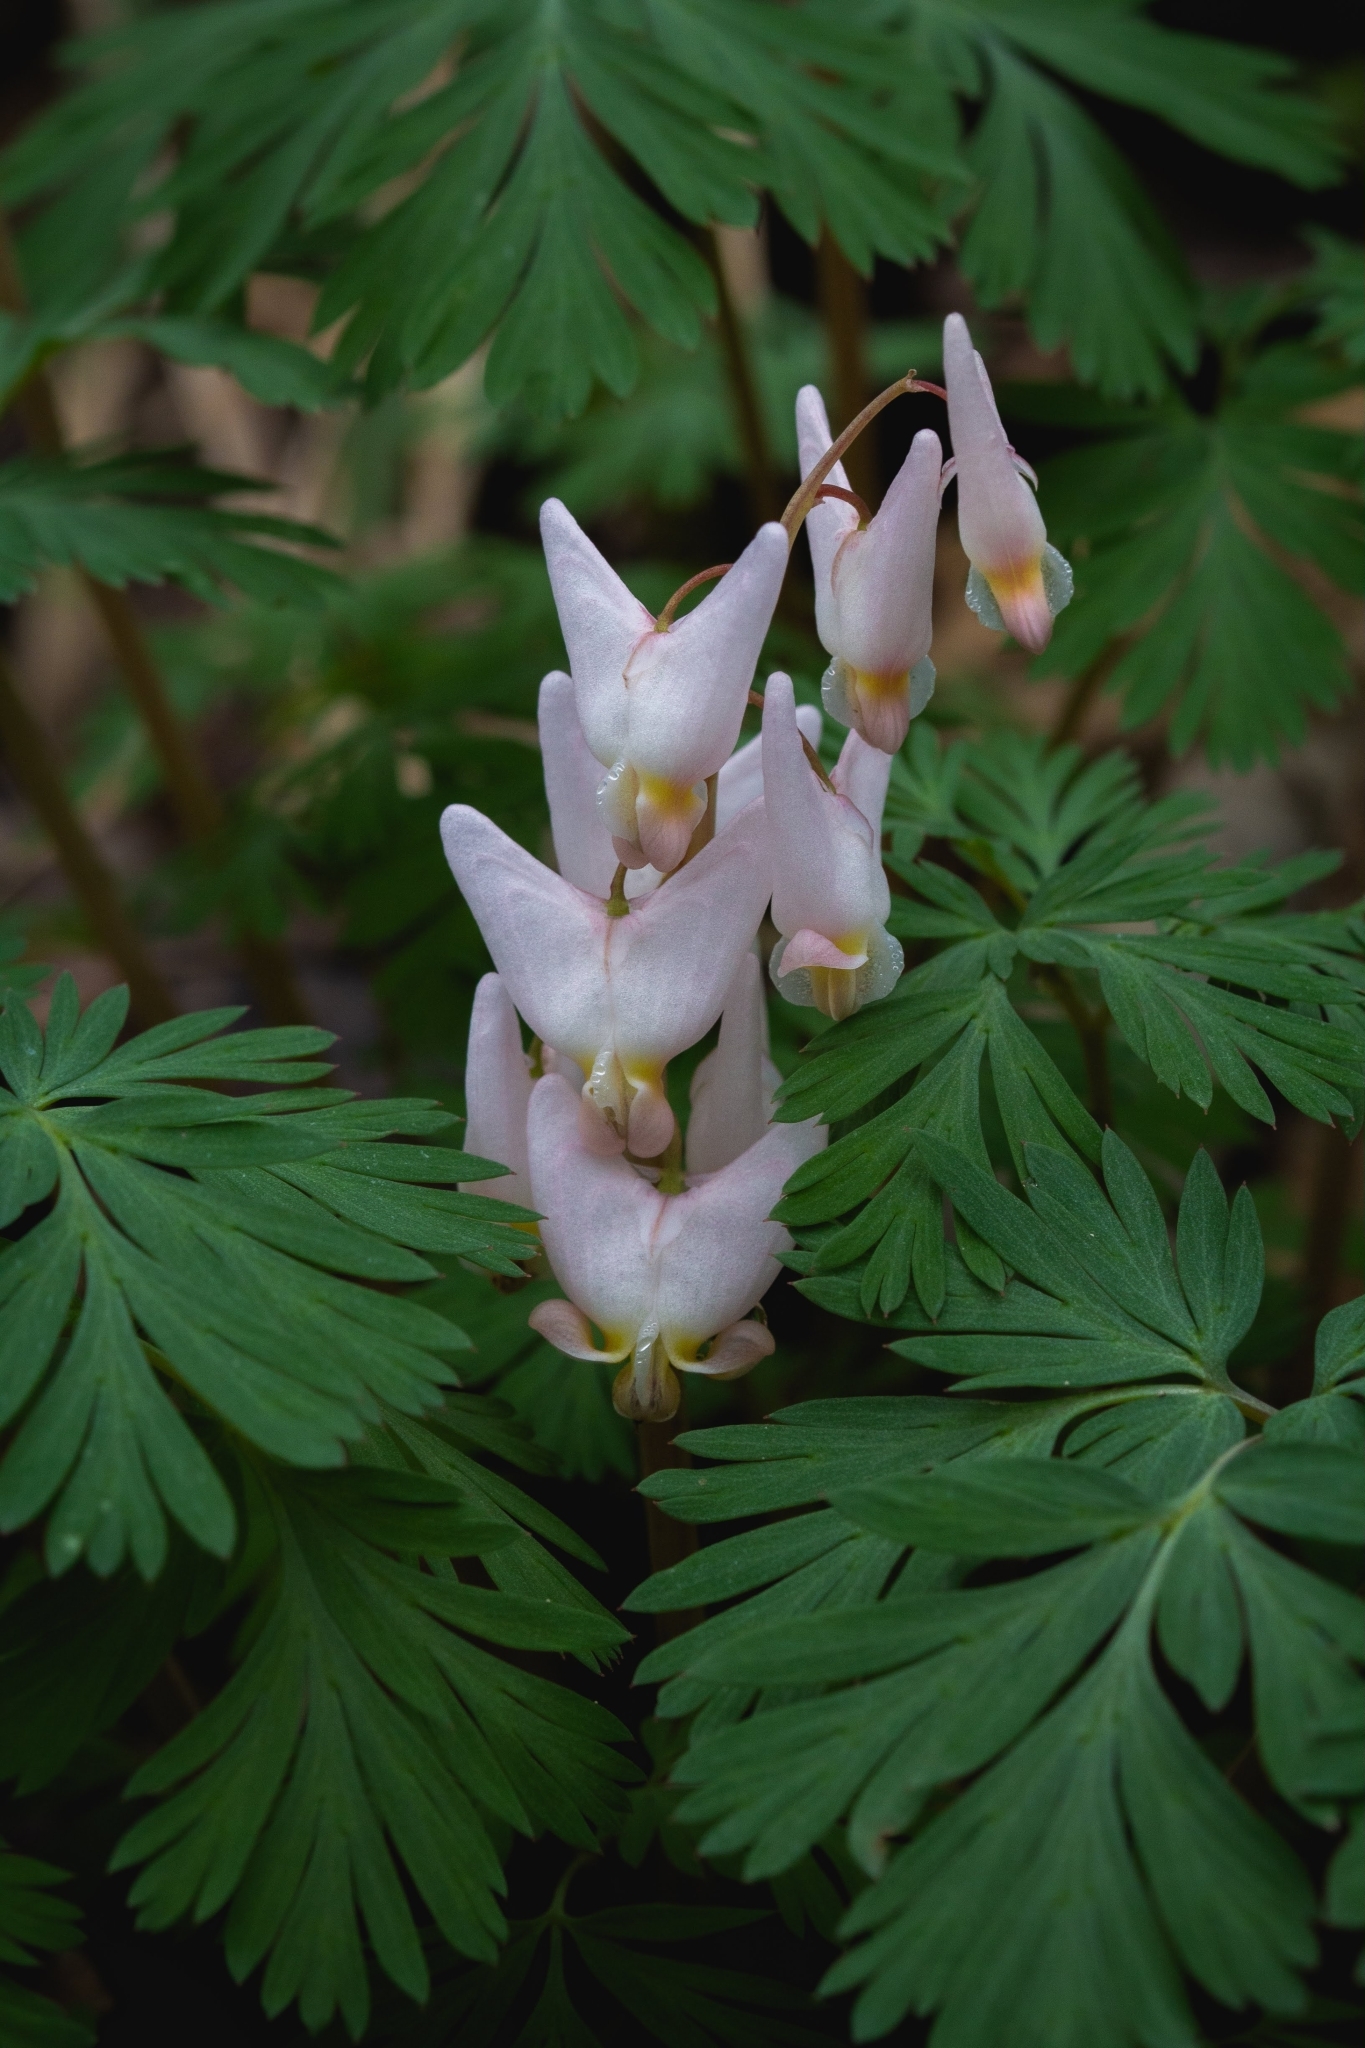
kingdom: Plantae
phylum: Tracheophyta
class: Magnoliopsida
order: Ranunculales
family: Papaveraceae
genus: Dicentra
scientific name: Dicentra cucullaria
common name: Dutchman's breeches
